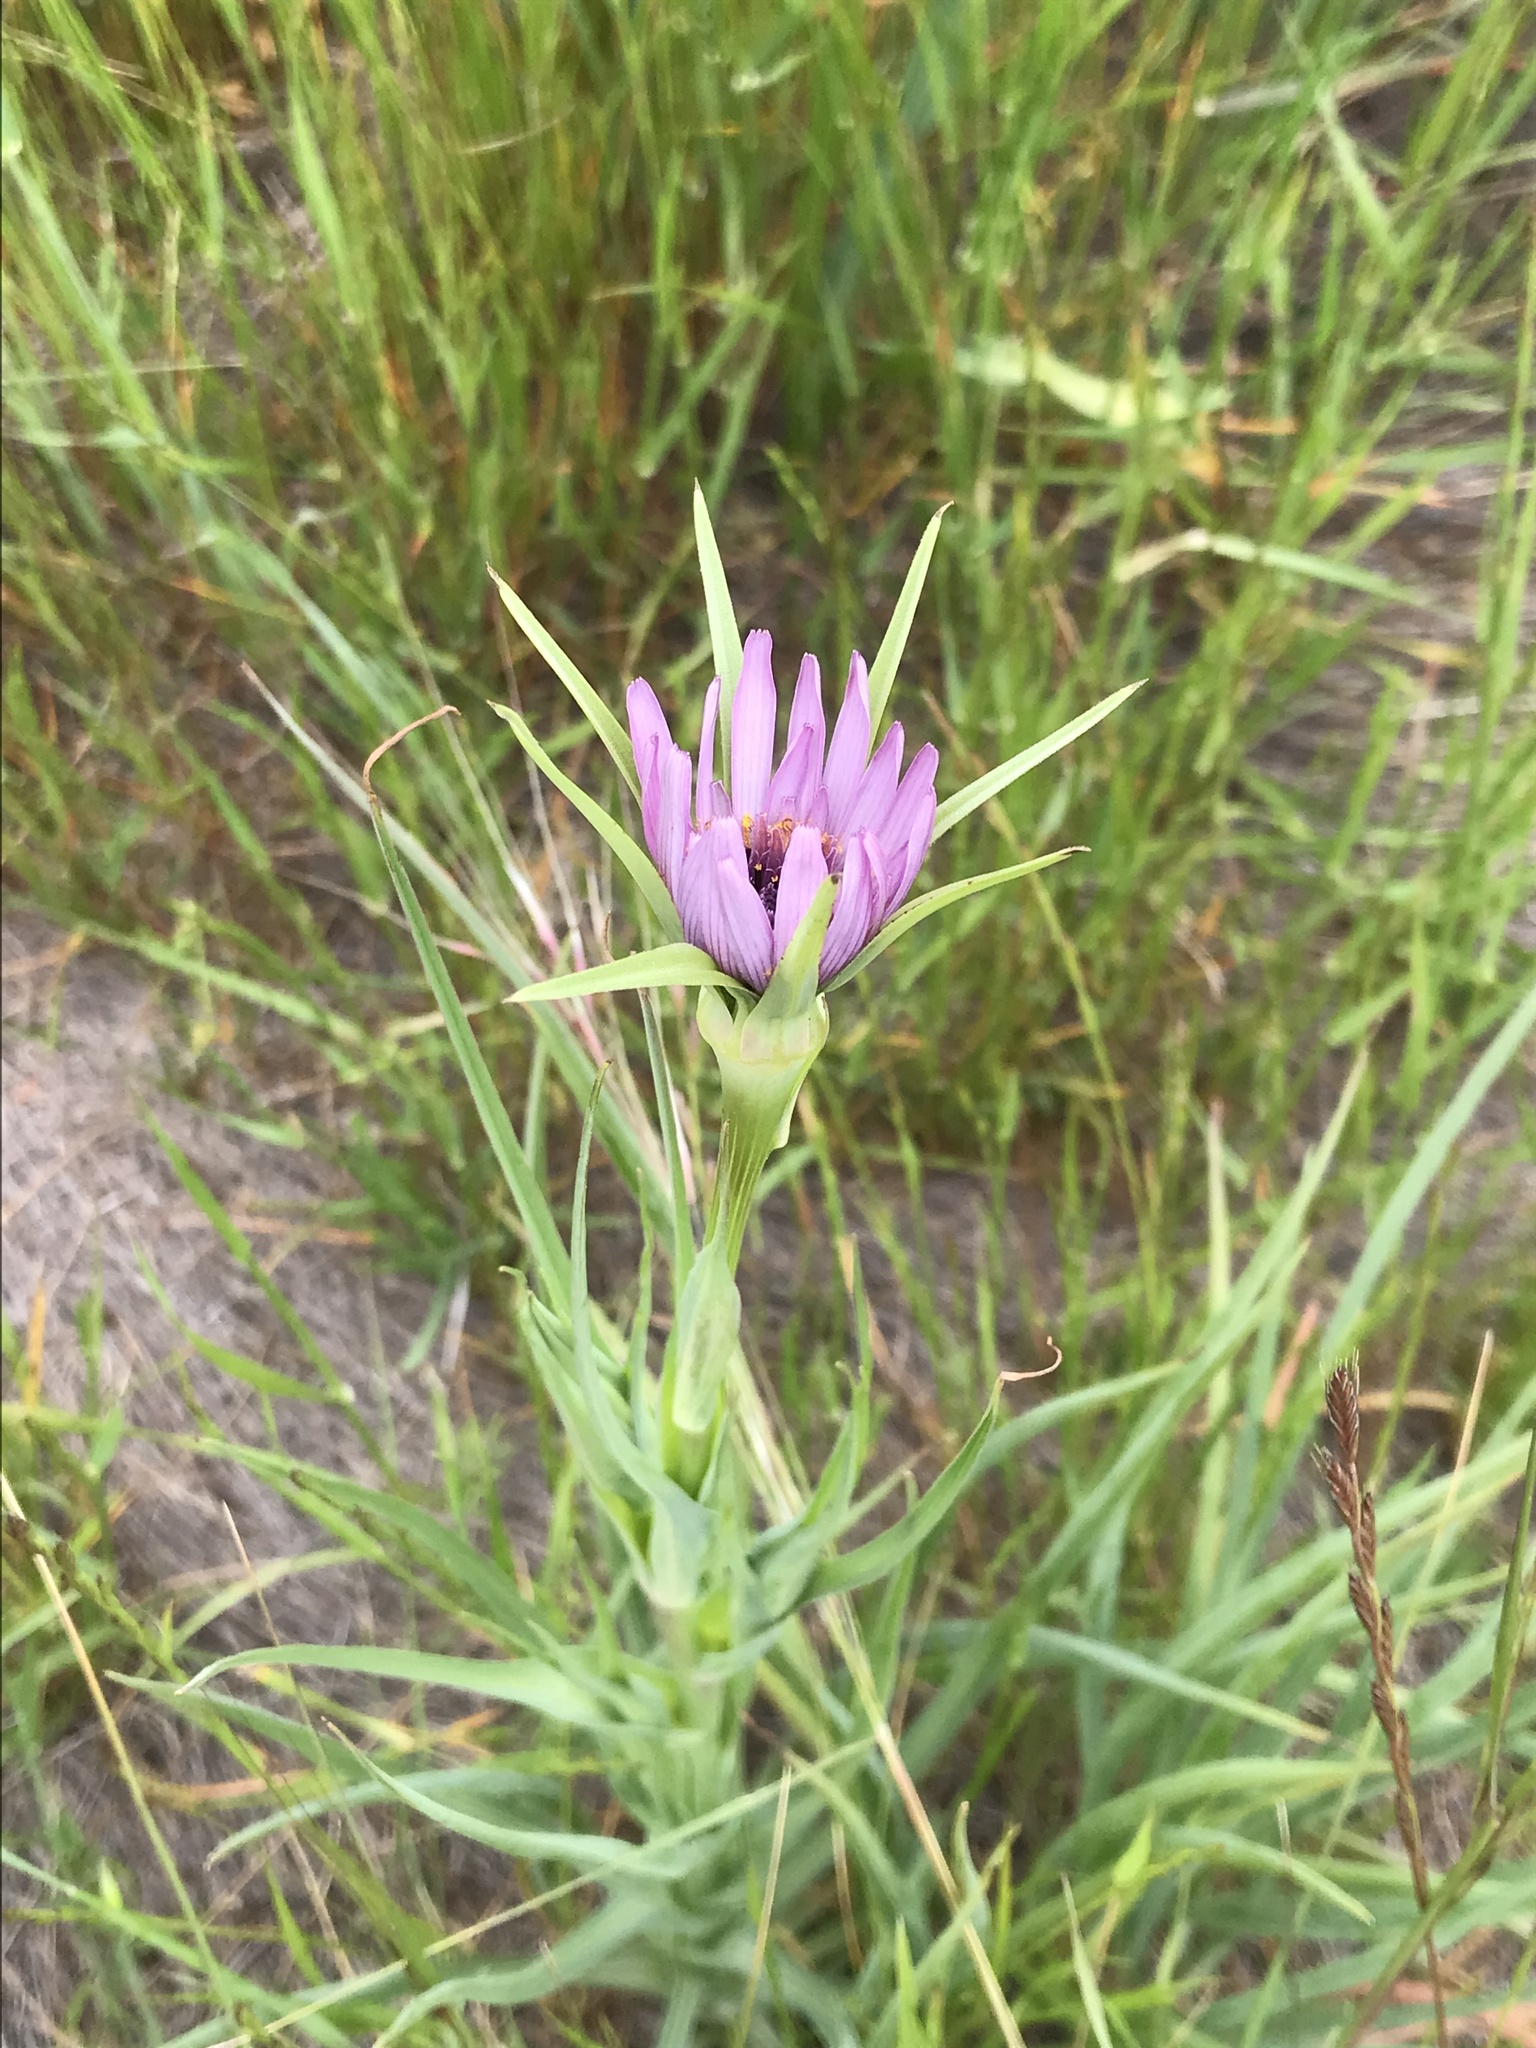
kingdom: Plantae
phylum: Tracheophyta
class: Magnoliopsida
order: Asterales
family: Asteraceae
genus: Tragopogon
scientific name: Tragopogon porrifolius
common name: Salsify
